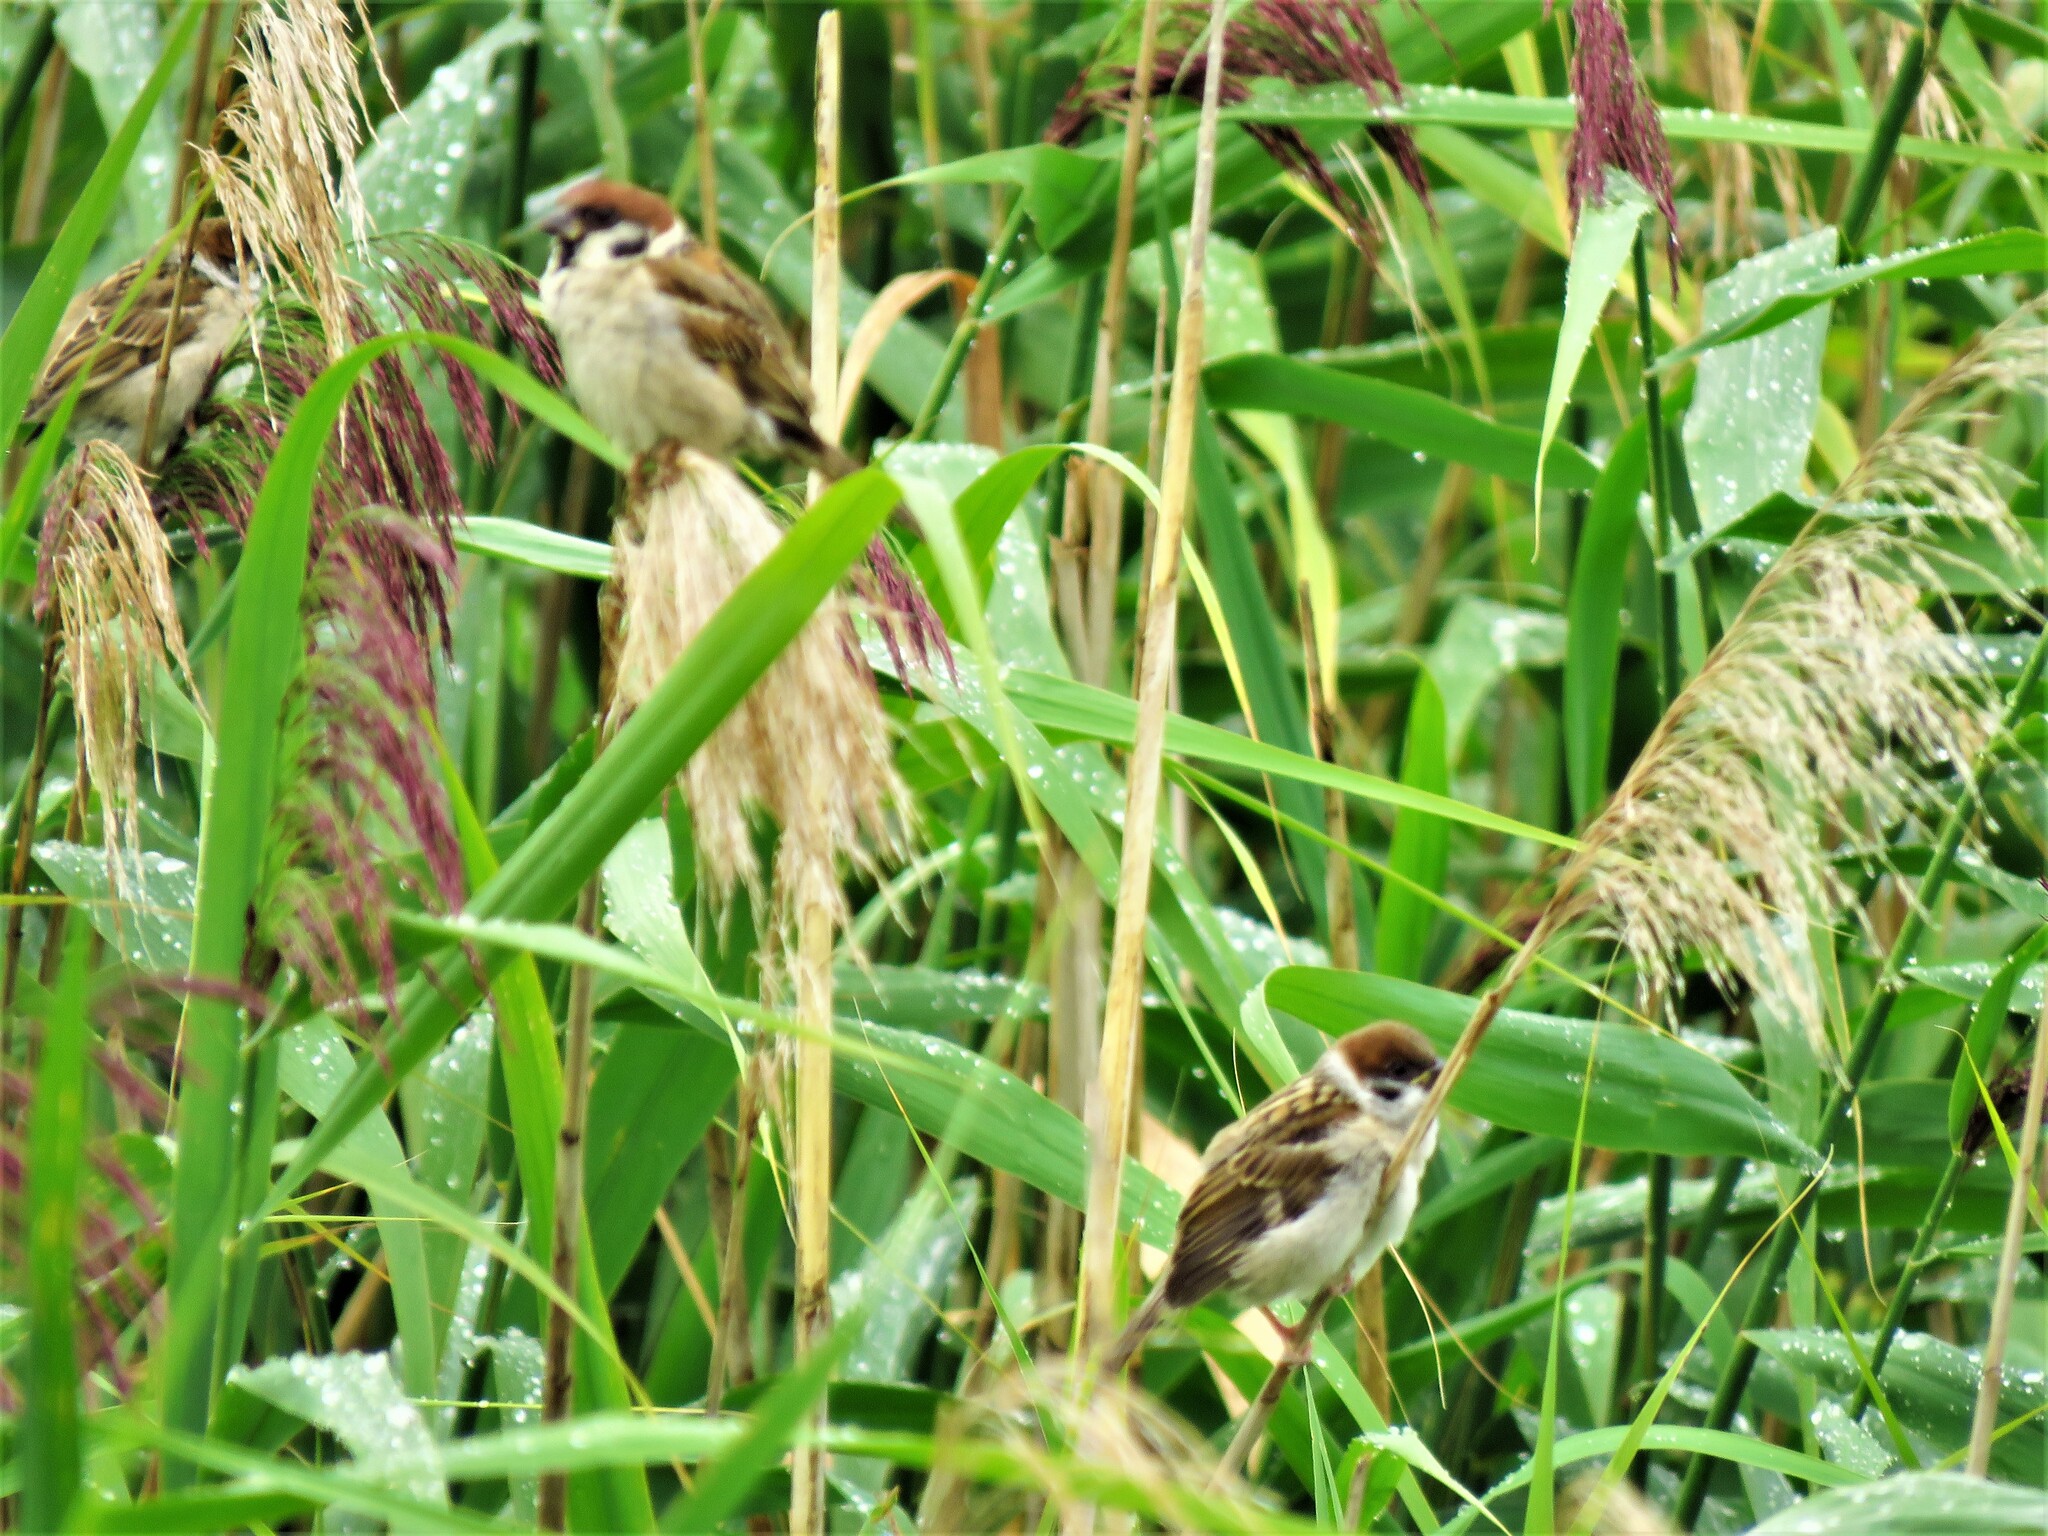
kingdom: Animalia
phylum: Chordata
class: Aves
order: Passeriformes
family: Passeridae
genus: Passer
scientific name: Passer montanus
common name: Eurasian tree sparrow
